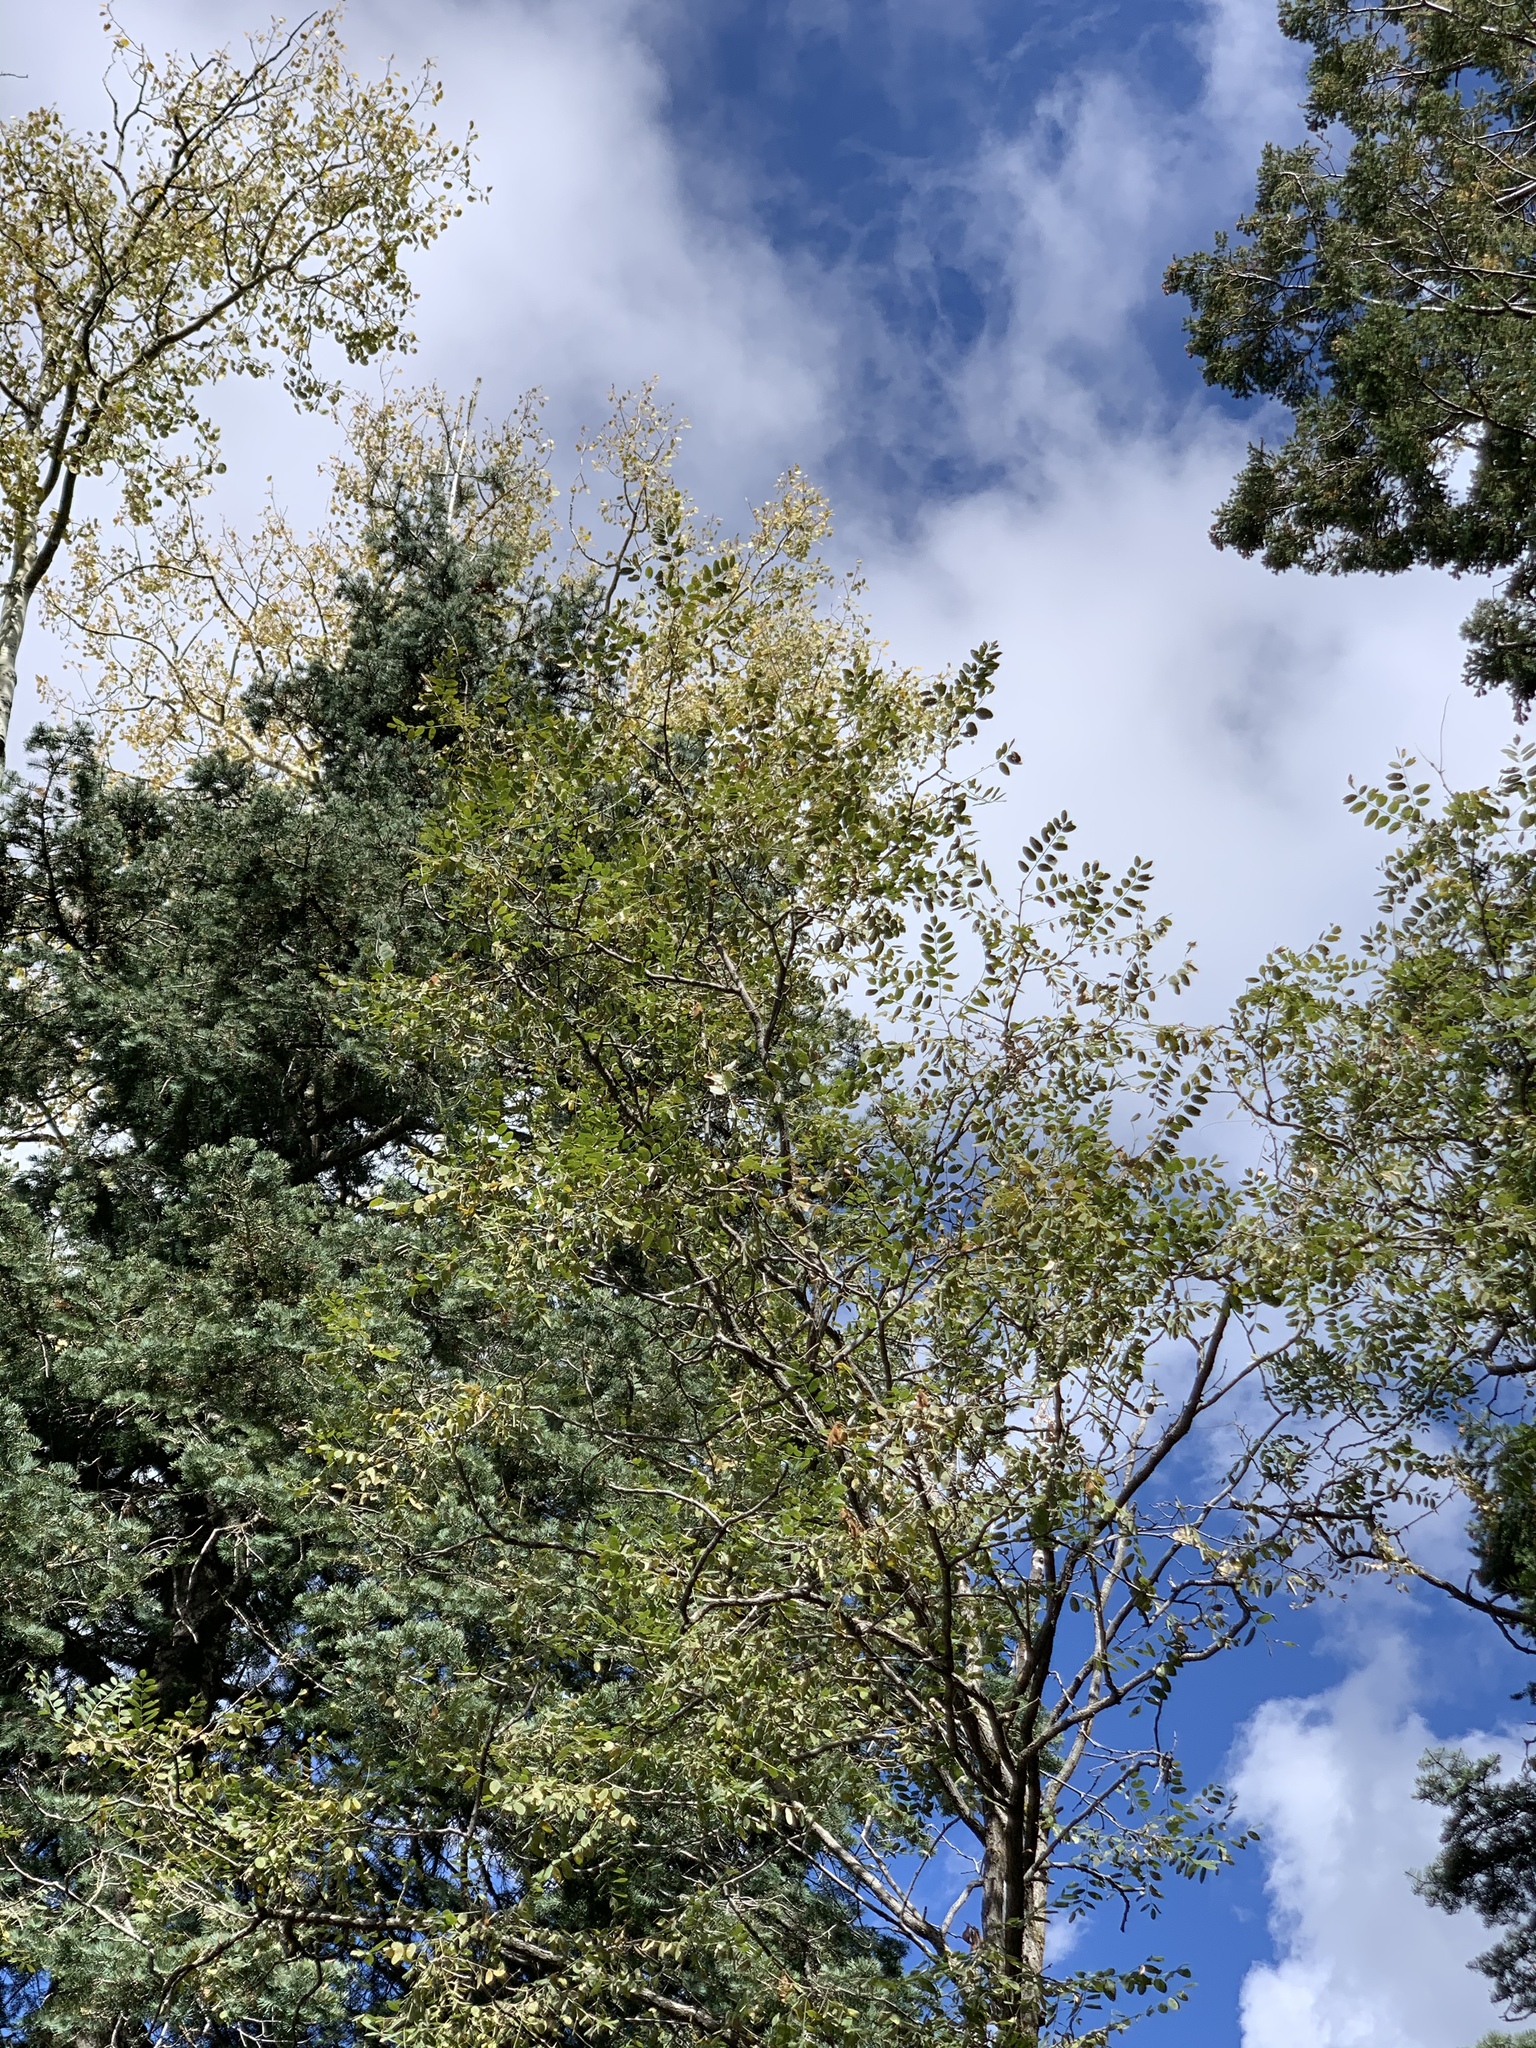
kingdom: Plantae
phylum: Tracheophyta
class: Magnoliopsida
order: Fabales
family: Fabaceae
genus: Robinia
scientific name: Robinia neomexicana
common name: New mexico locust
